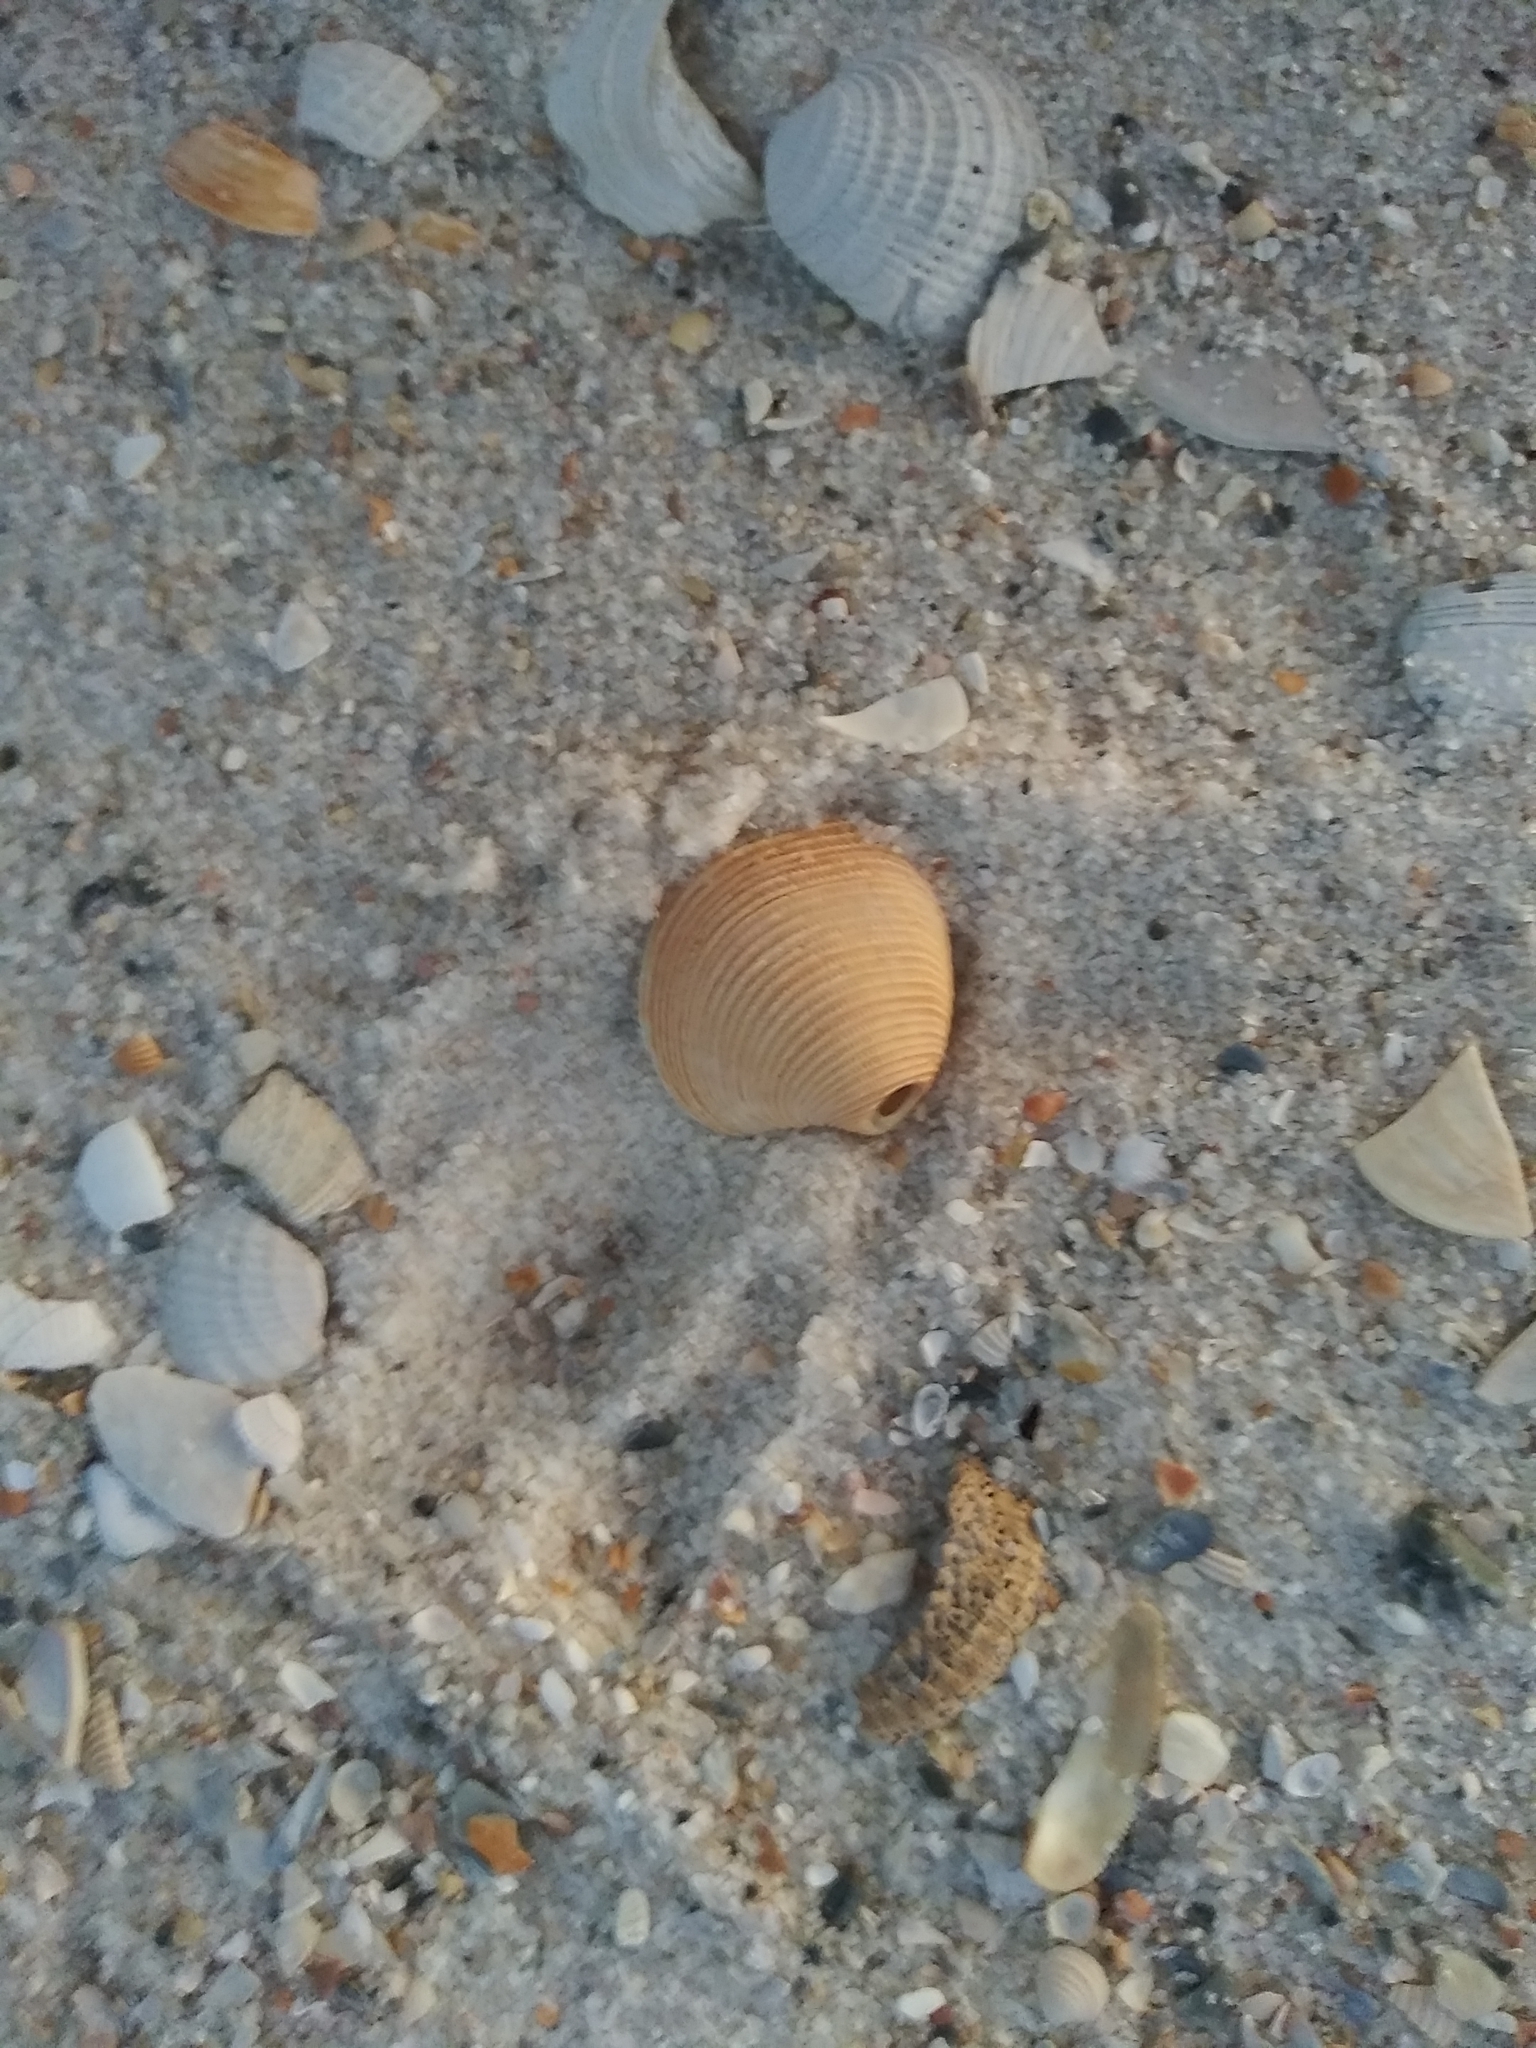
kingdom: Animalia
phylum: Mollusca
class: Bivalvia
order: Venerida
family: Veneridae
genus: Chionopsis
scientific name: Chionopsis intapurpurea
